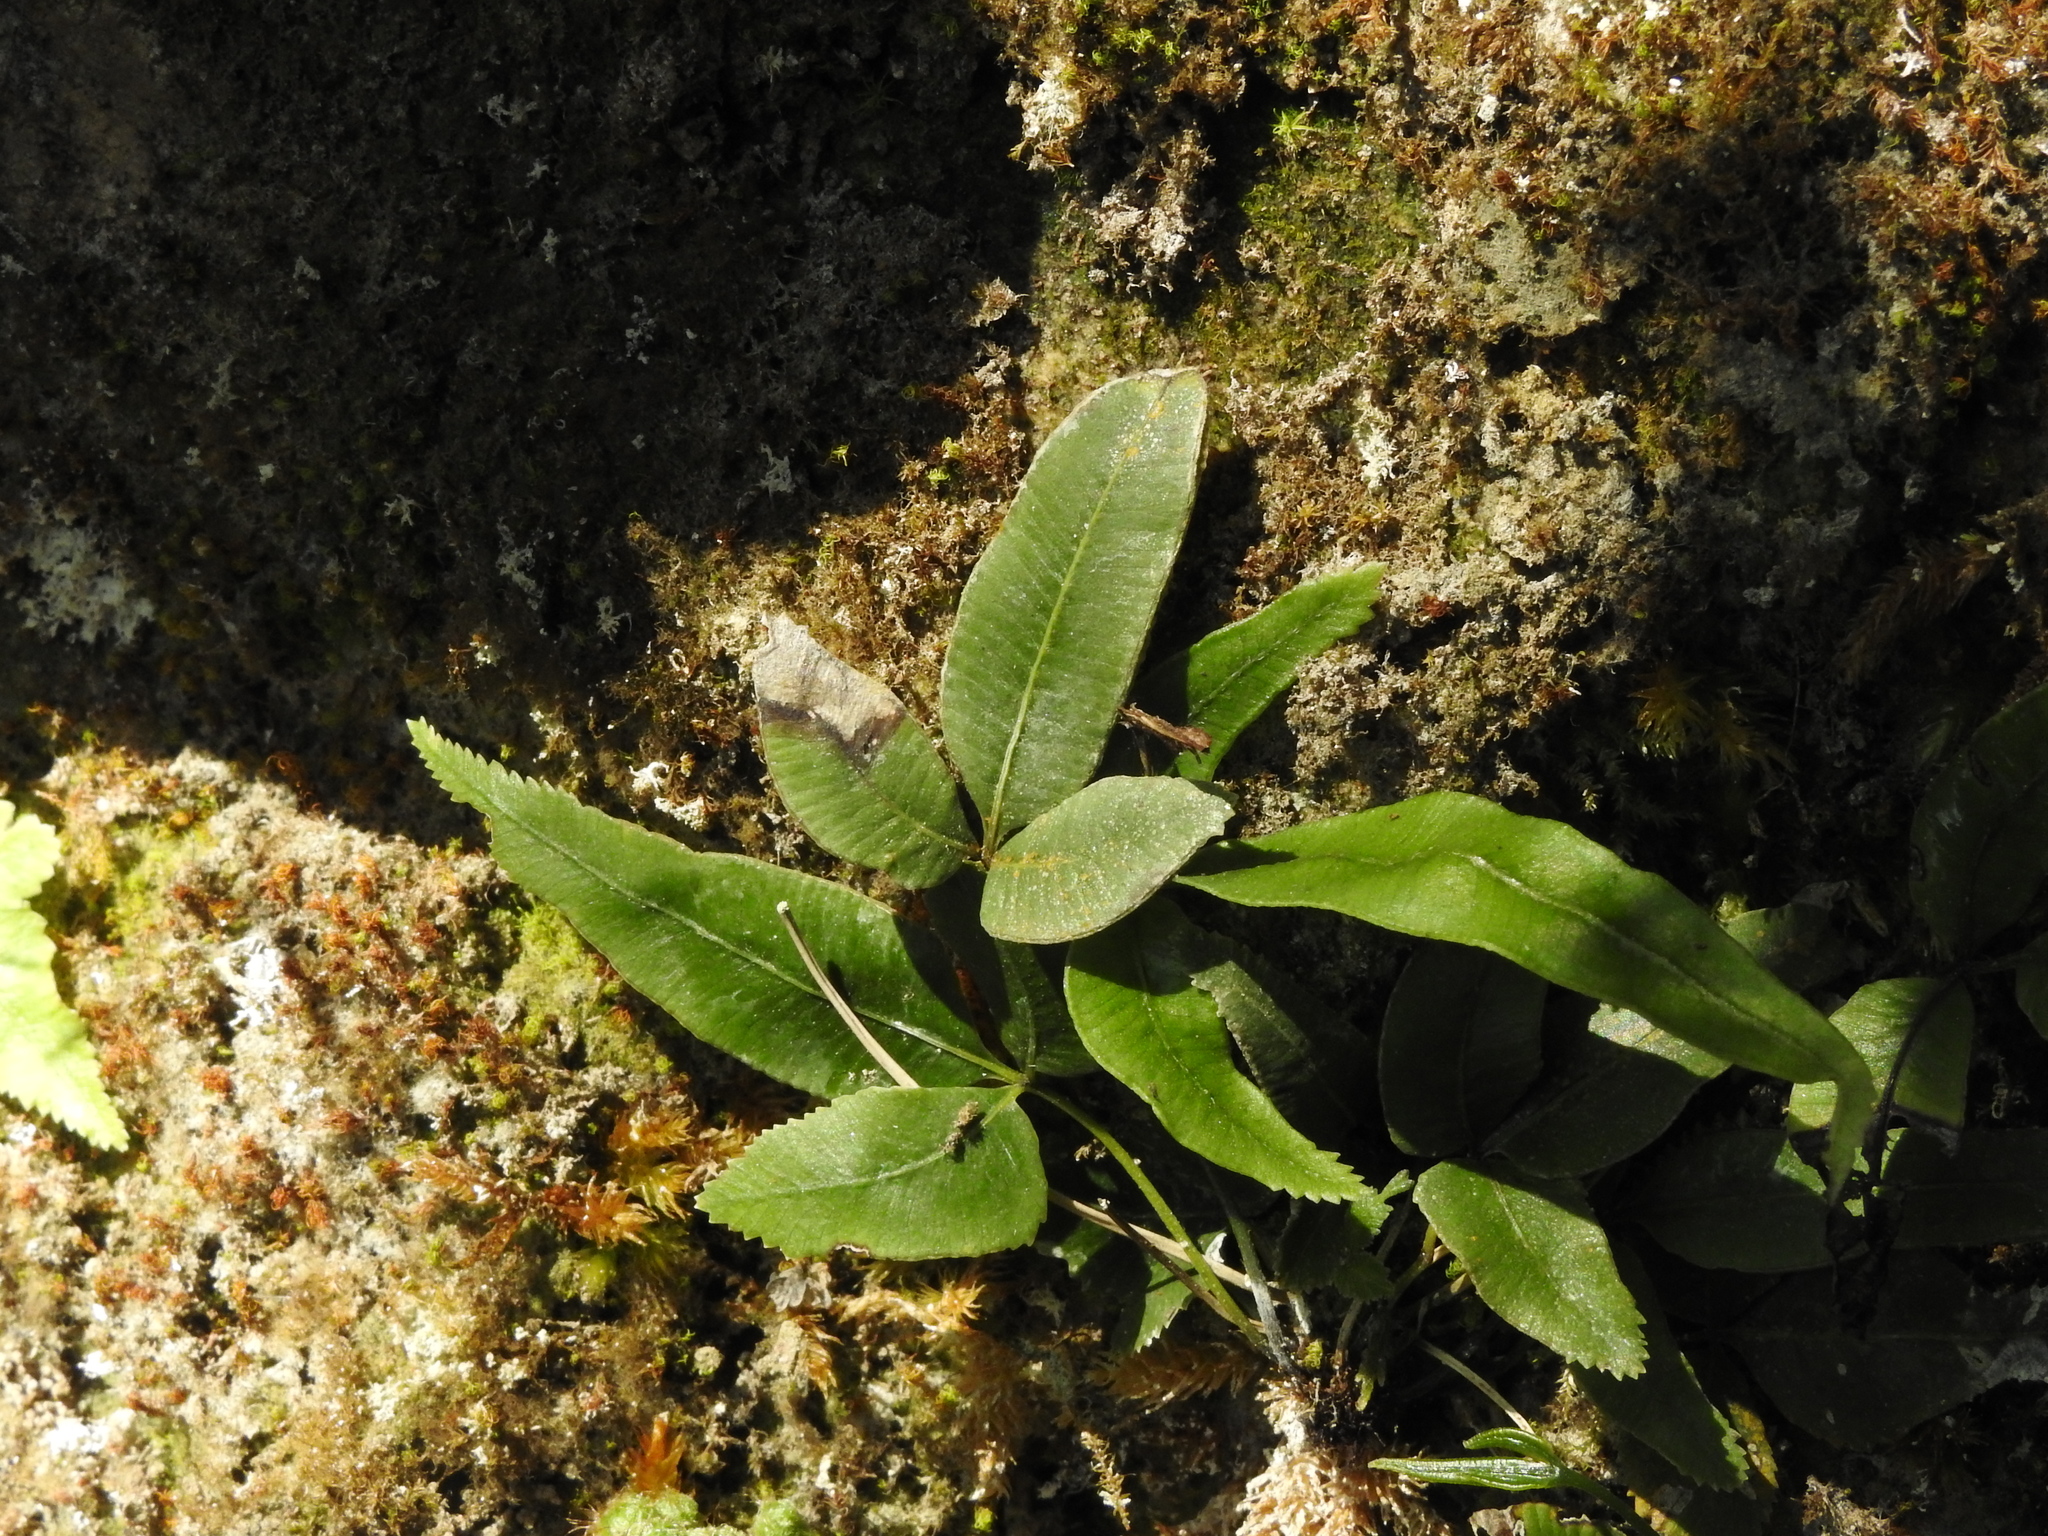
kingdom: Plantae
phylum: Tracheophyta
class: Polypodiopsida
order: Polypodiales
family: Pteridaceae
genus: Pteris
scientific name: Pteris deltodon
